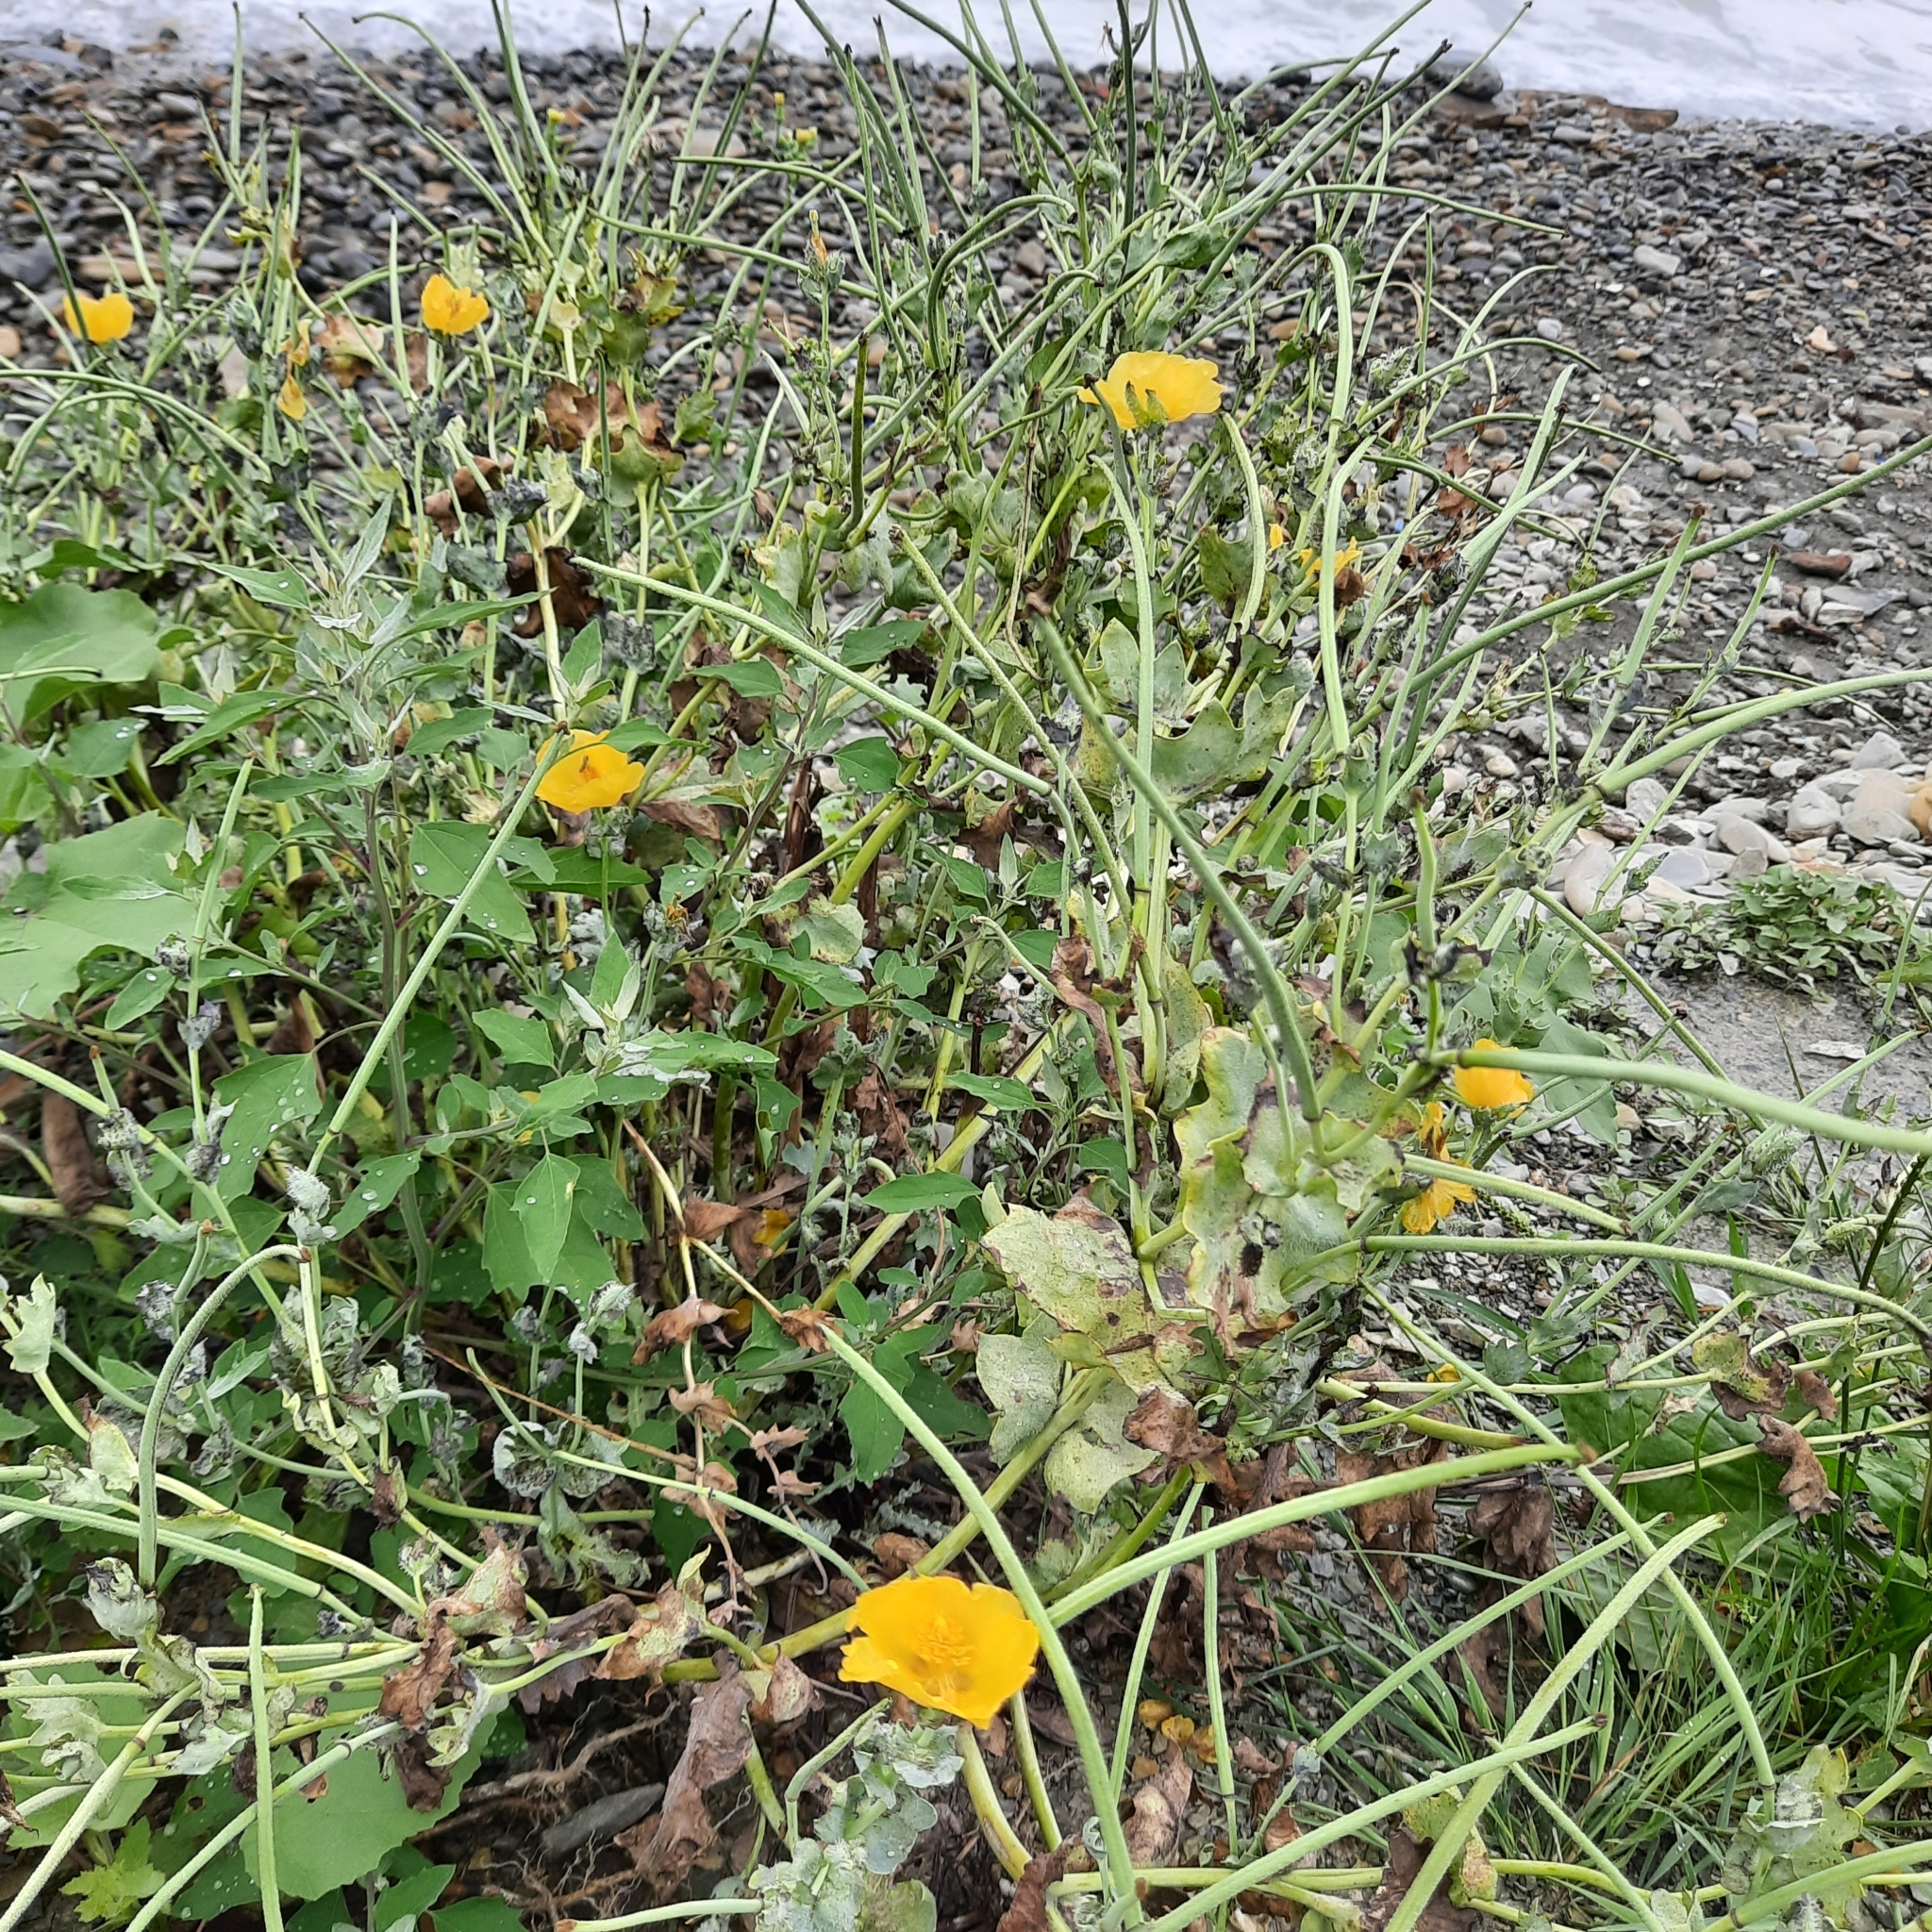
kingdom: Plantae
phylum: Tracheophyta
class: Magnoliopsida
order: Ranunculales
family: Papaveraceae
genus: Glaucium
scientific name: Glaucium flavum
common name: Yellow horned-poppy
